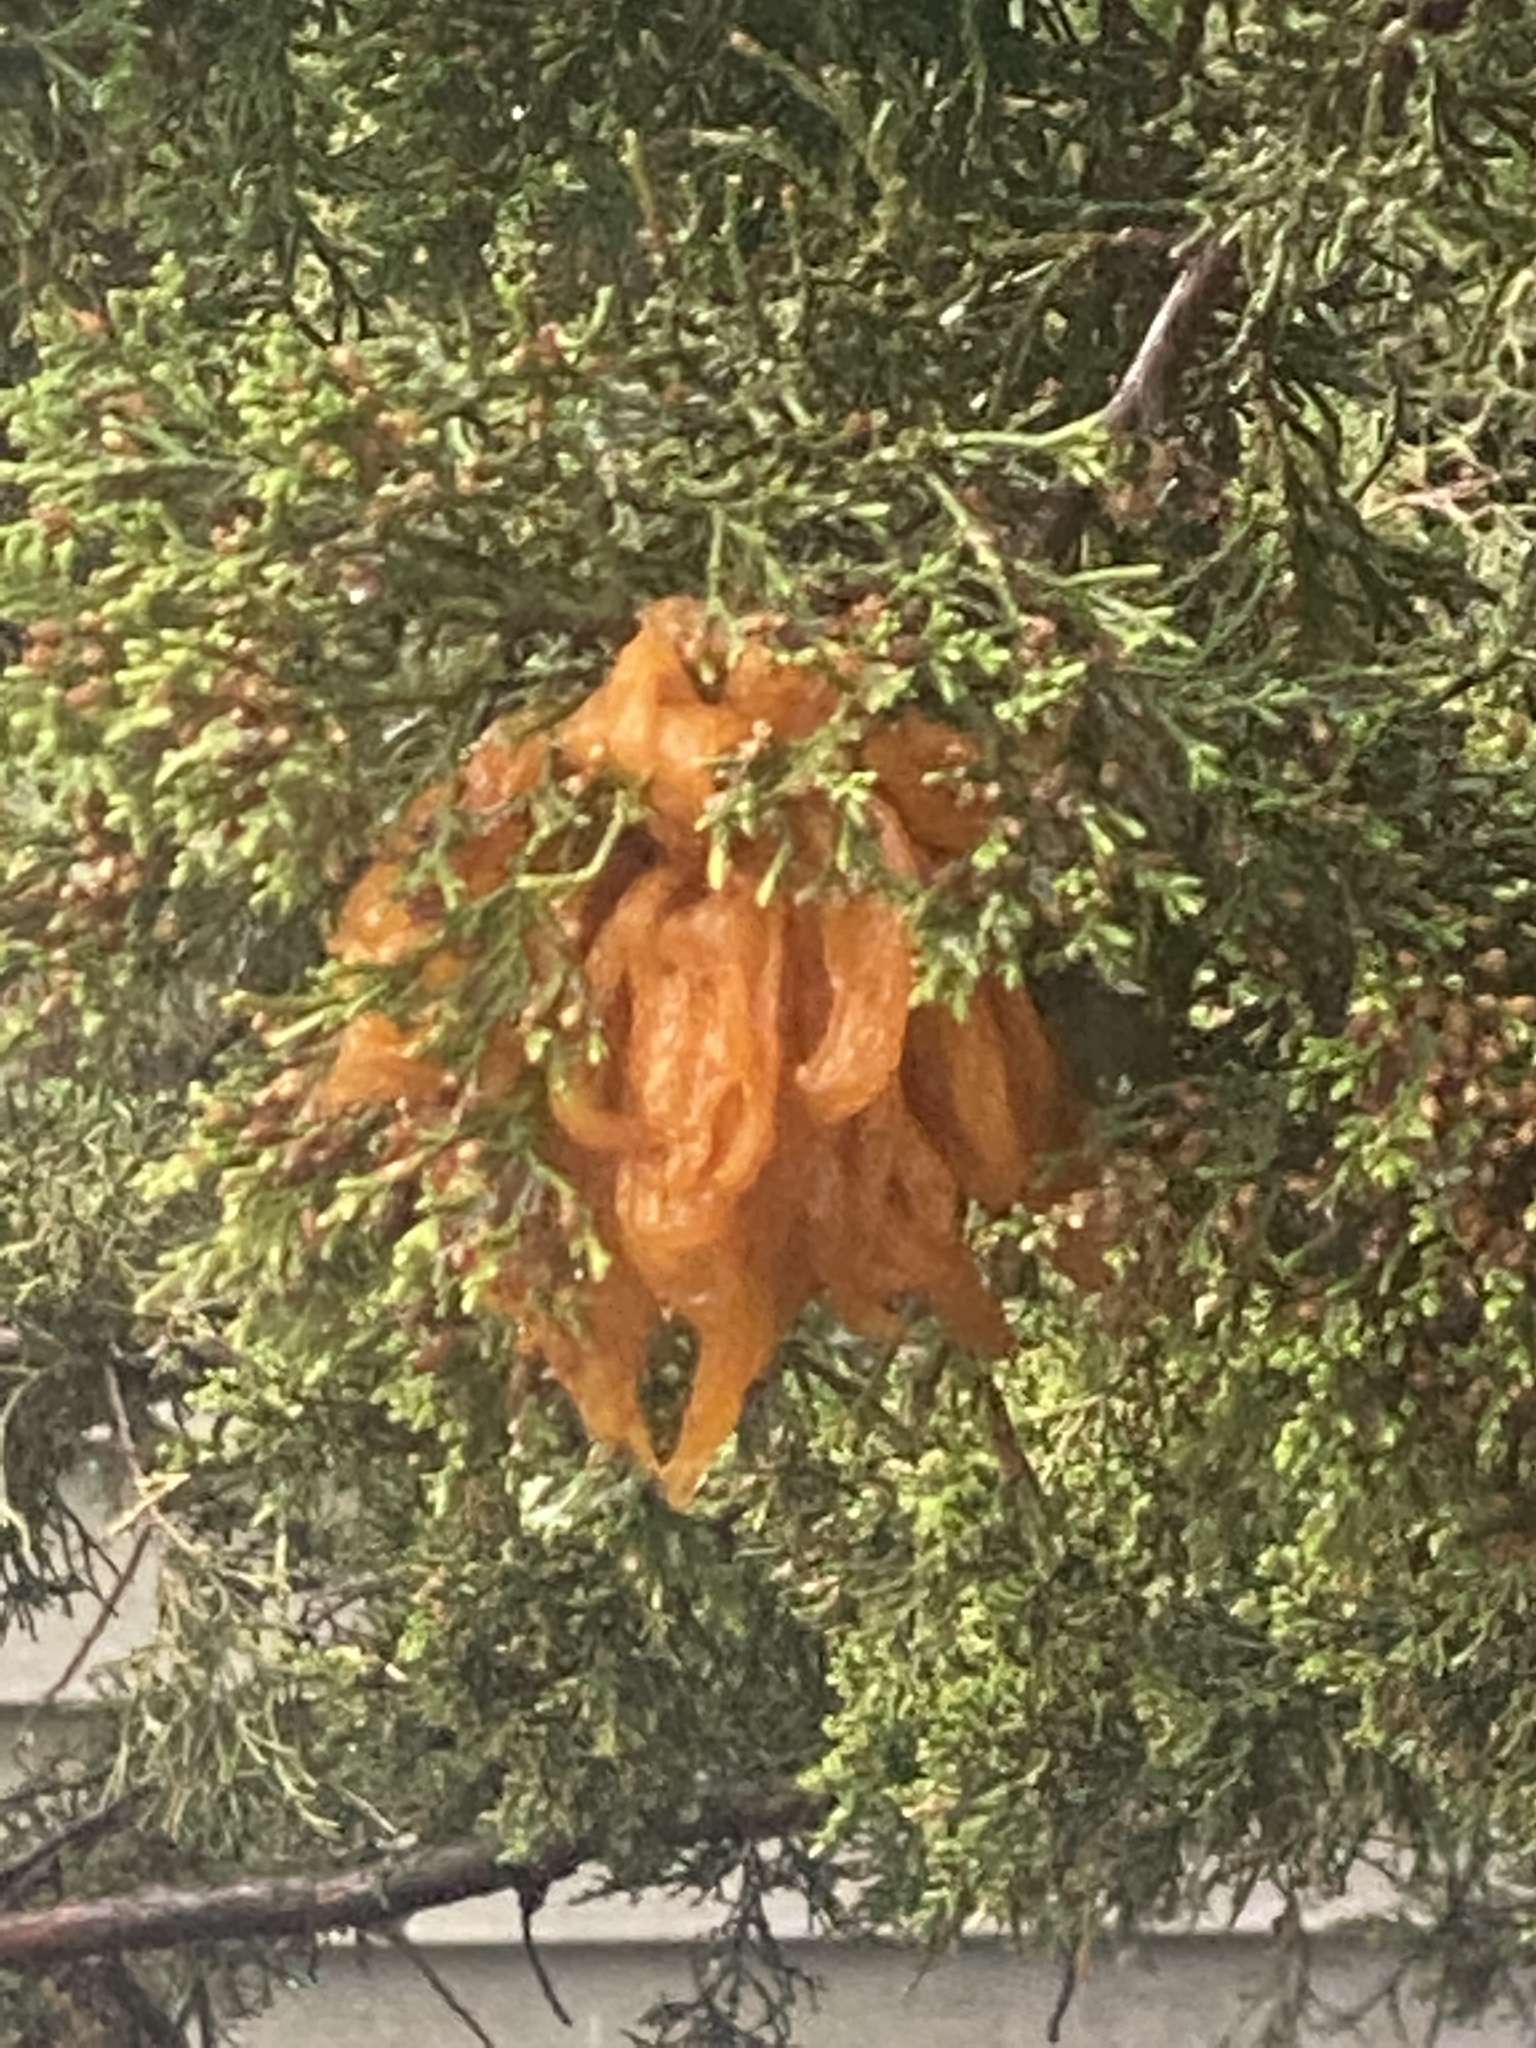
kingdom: Fungi
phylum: Basidiomycota
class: Pucciniomycetes
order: Pucciniales
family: Gymnosporangiaceae
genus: Gymnosporangium
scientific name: Gymnosporangium juniperi-virginianae
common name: Juniper-apple rust
